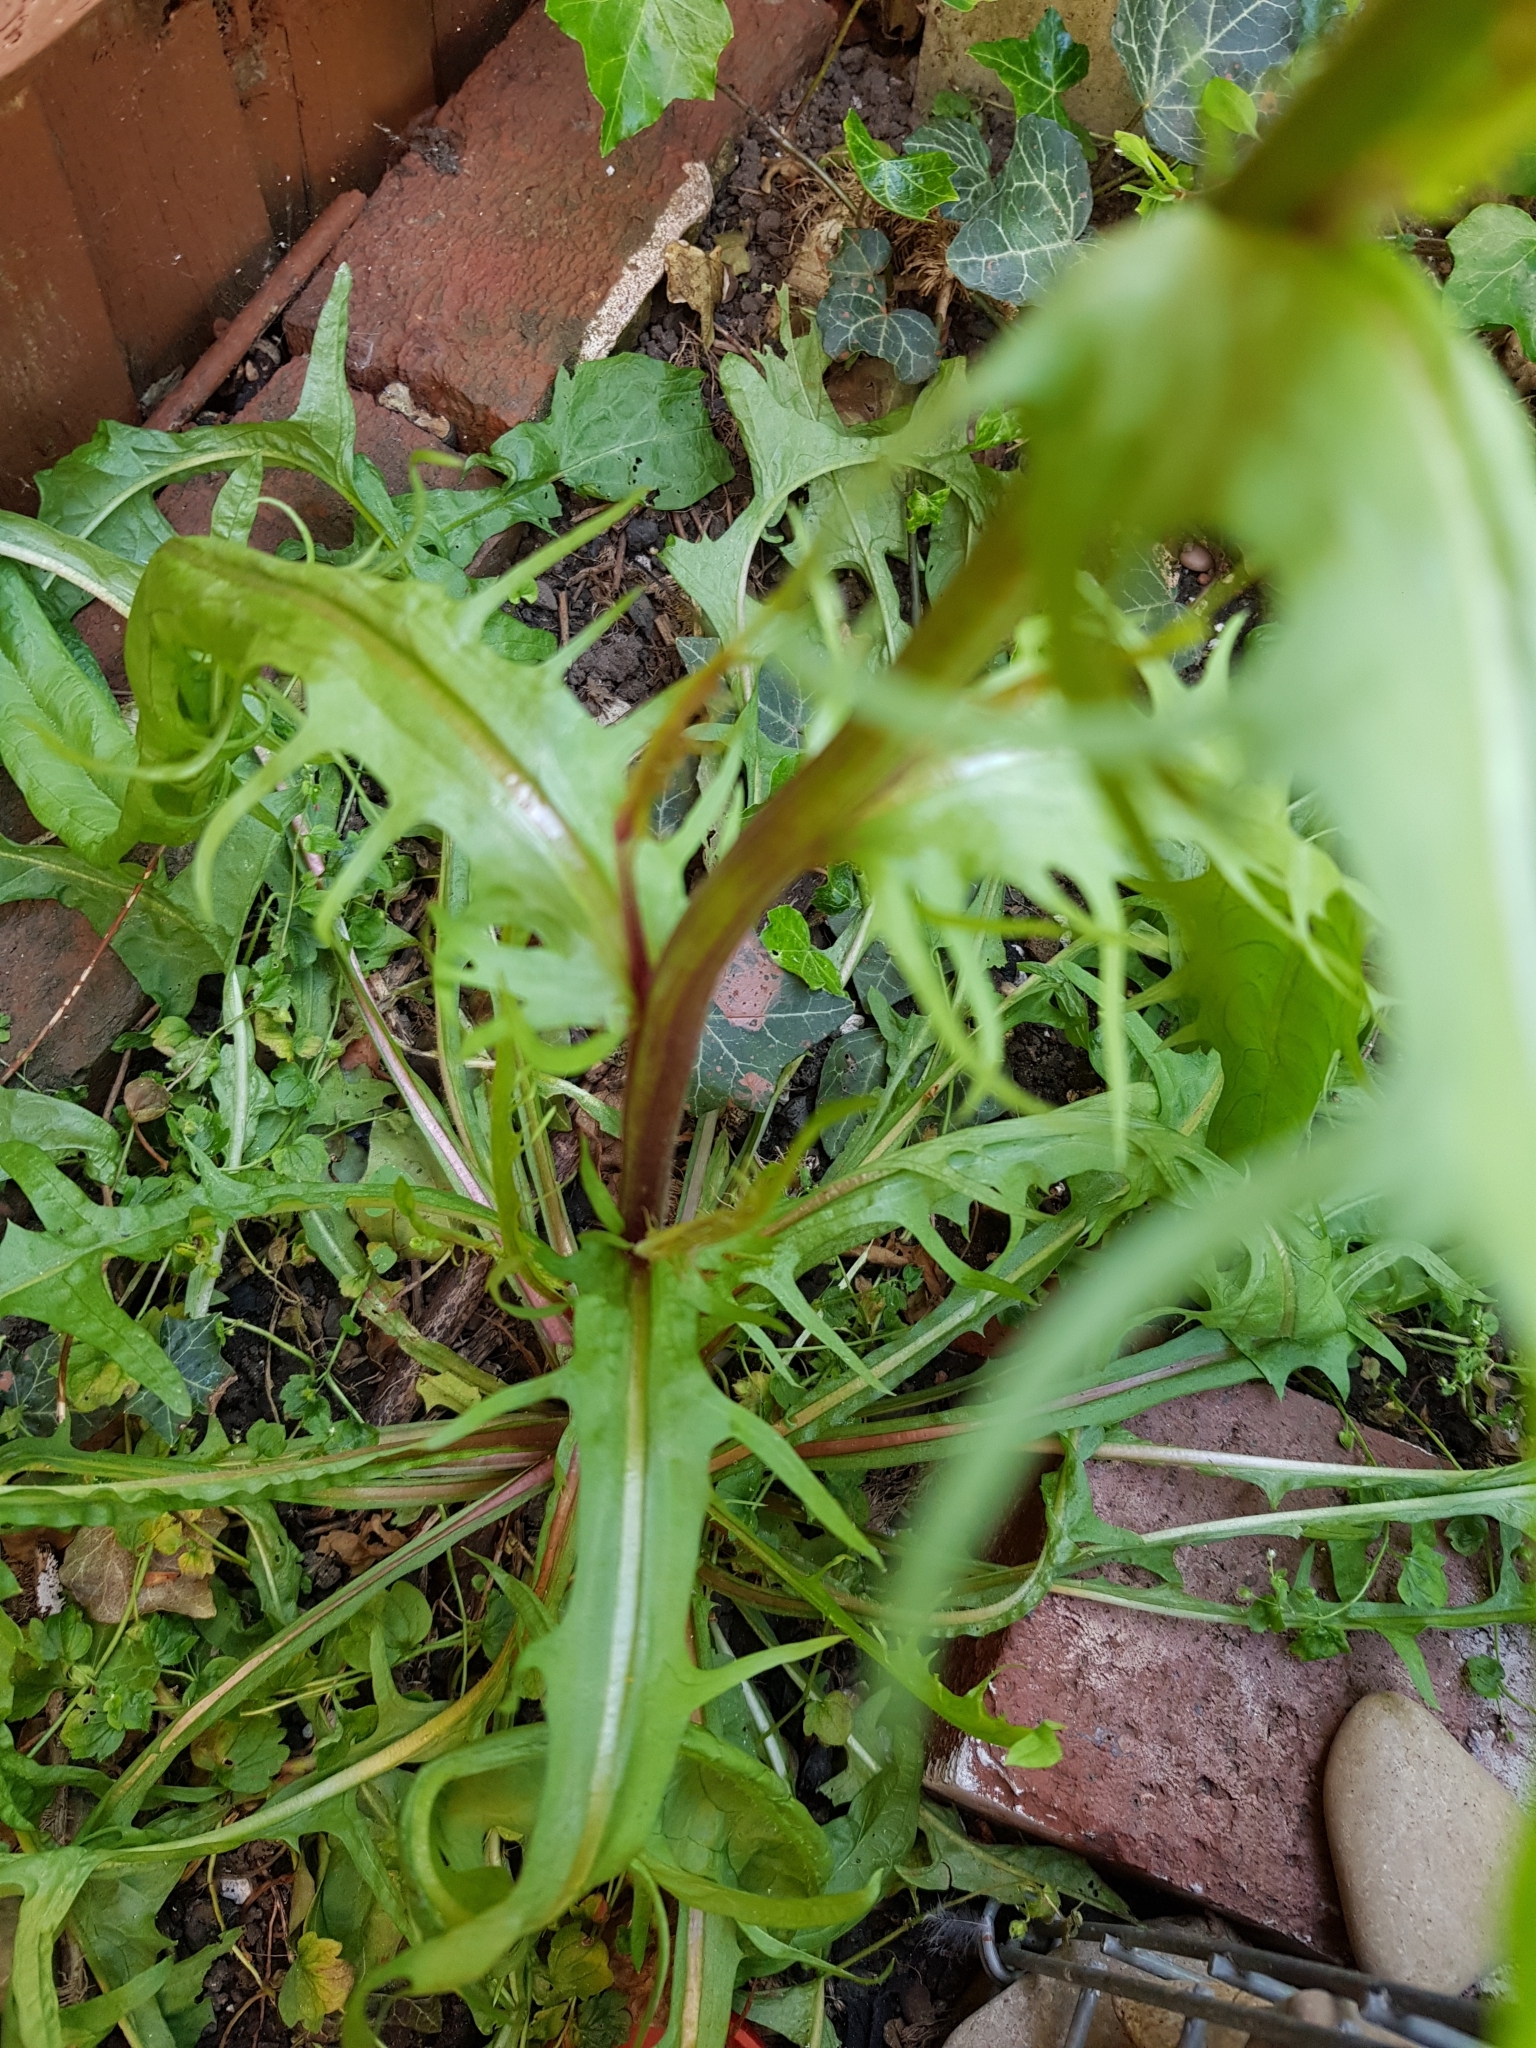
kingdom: Plantae
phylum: Tracheophyta
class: Magnoliopsida
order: Asterales
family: Asteraceae
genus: Crepis
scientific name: Crepis capillaris
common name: Smooth hawksbeard
